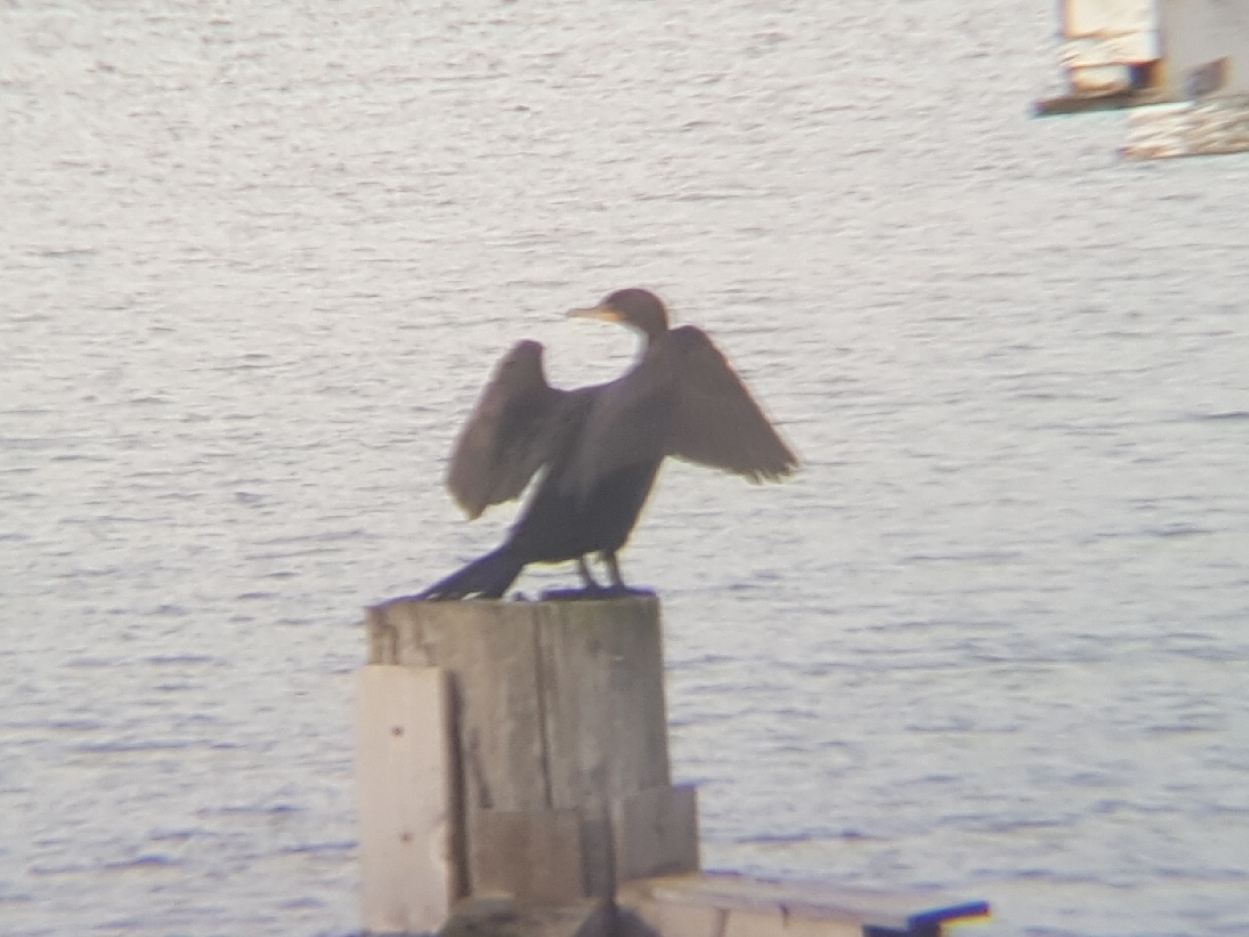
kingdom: Animalia
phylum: Chordata
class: Aves
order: Suliformes
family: Phalacrocoracidae
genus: Phalacrocorax
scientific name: Phalacrocorax auritus
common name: Double-crested cormorant
